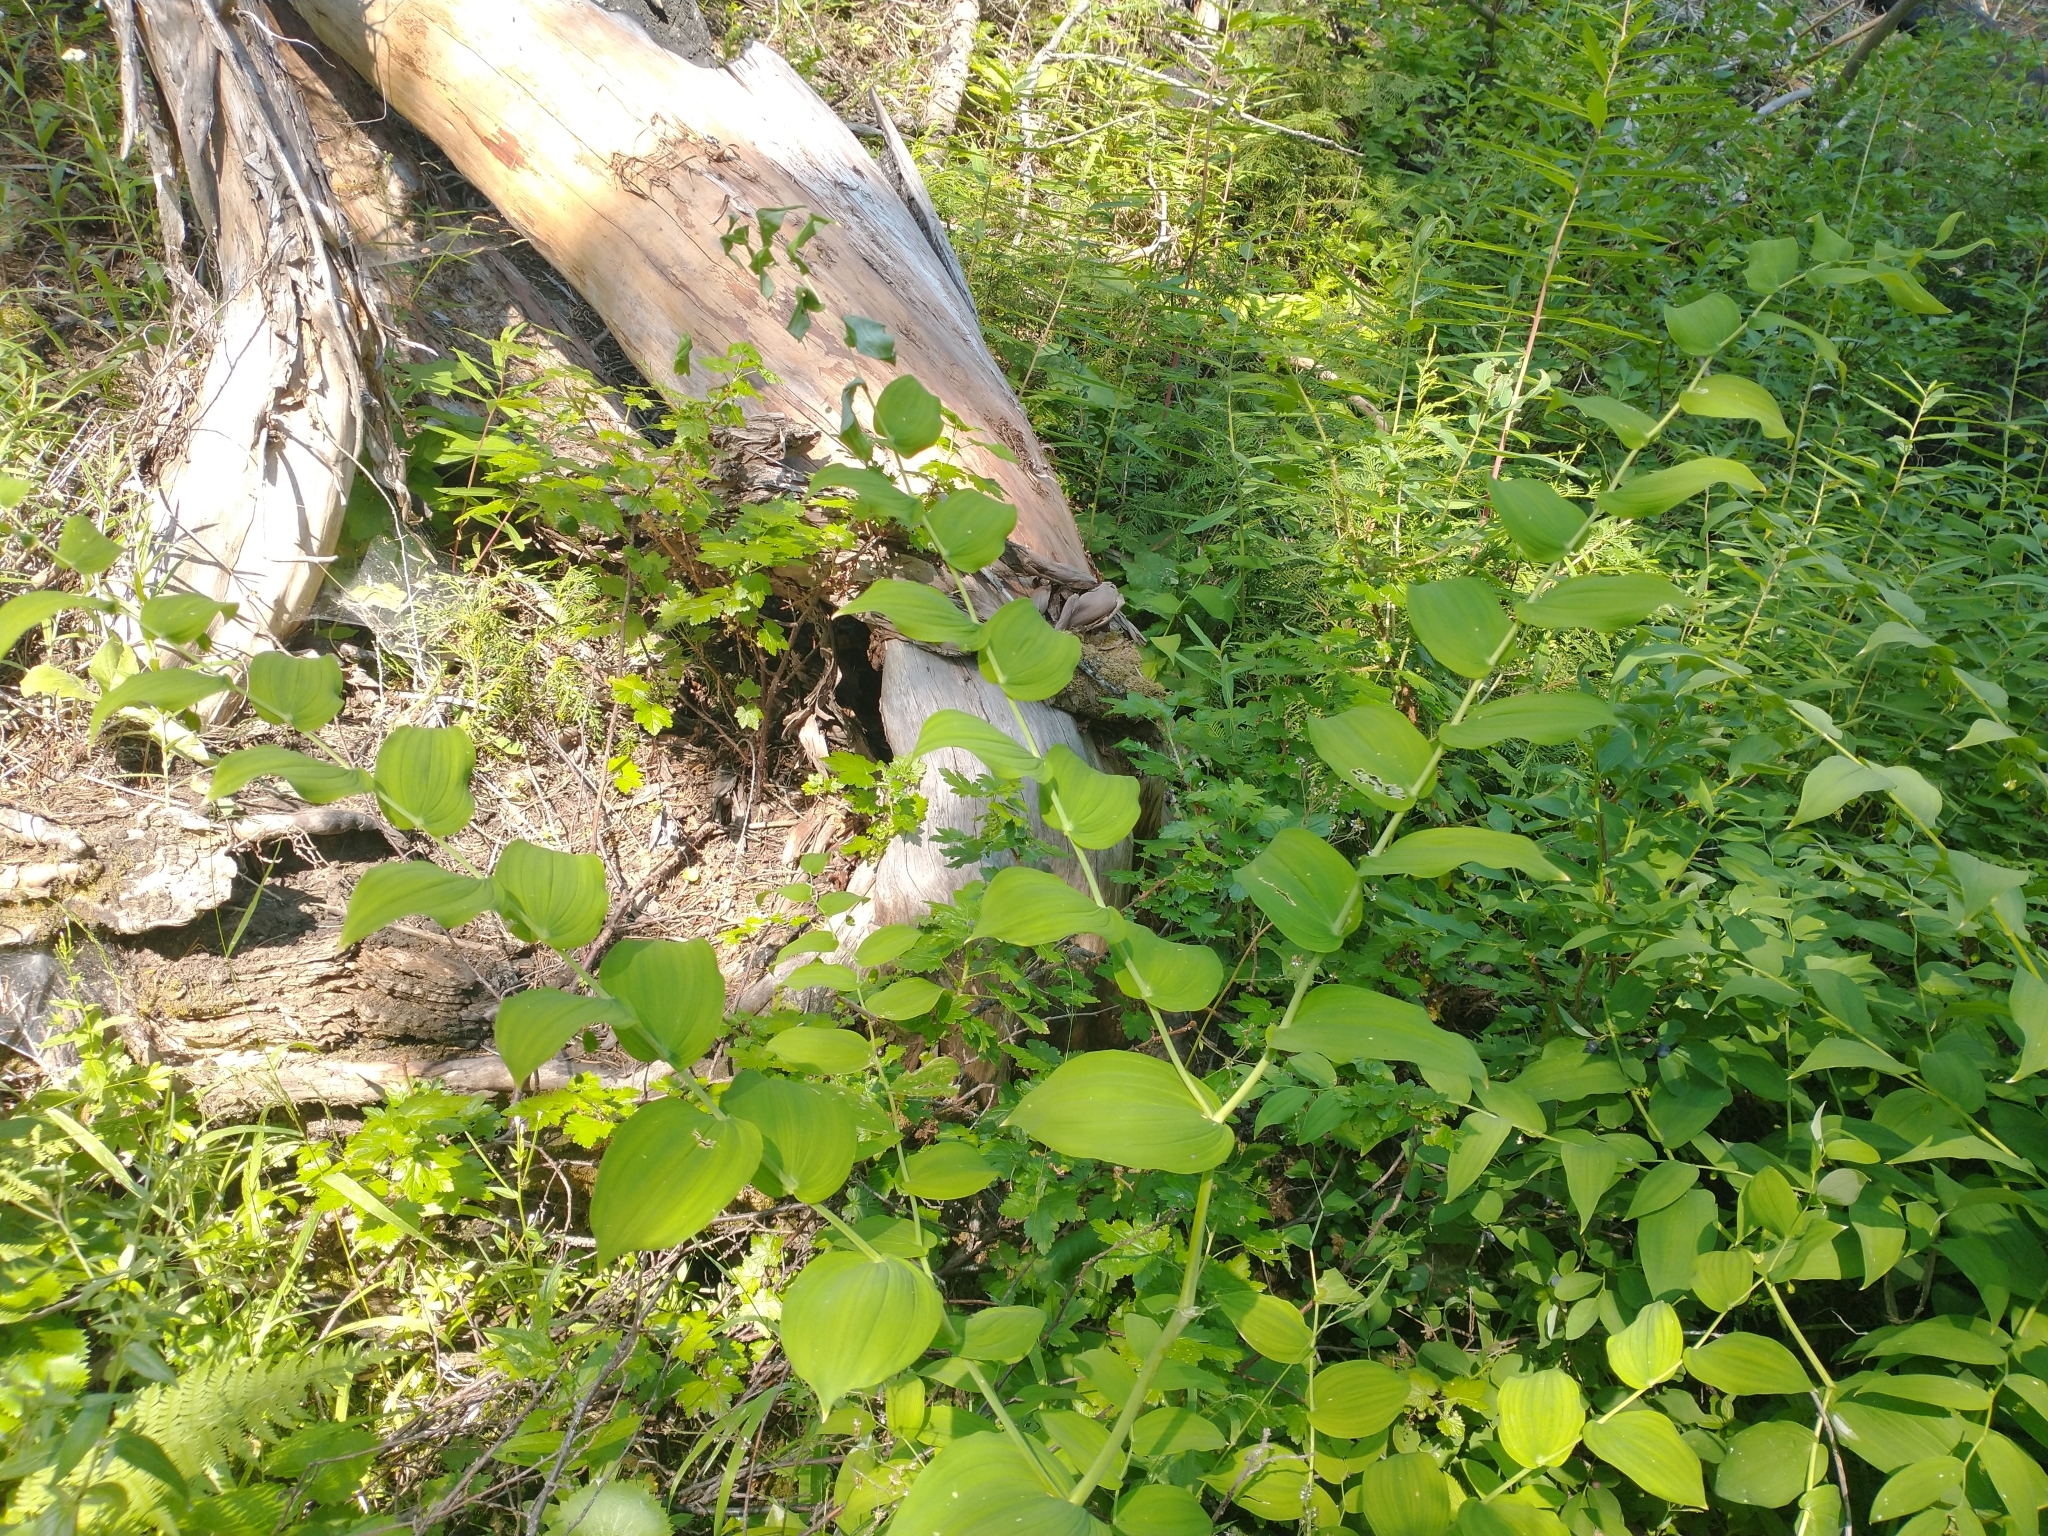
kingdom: Plantae
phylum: Tracheophyta
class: Liliopsida
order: Liliales
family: Liliaceae
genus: Streptopus
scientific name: Streptopus amplexifolius
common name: Clasp twisted stalk
